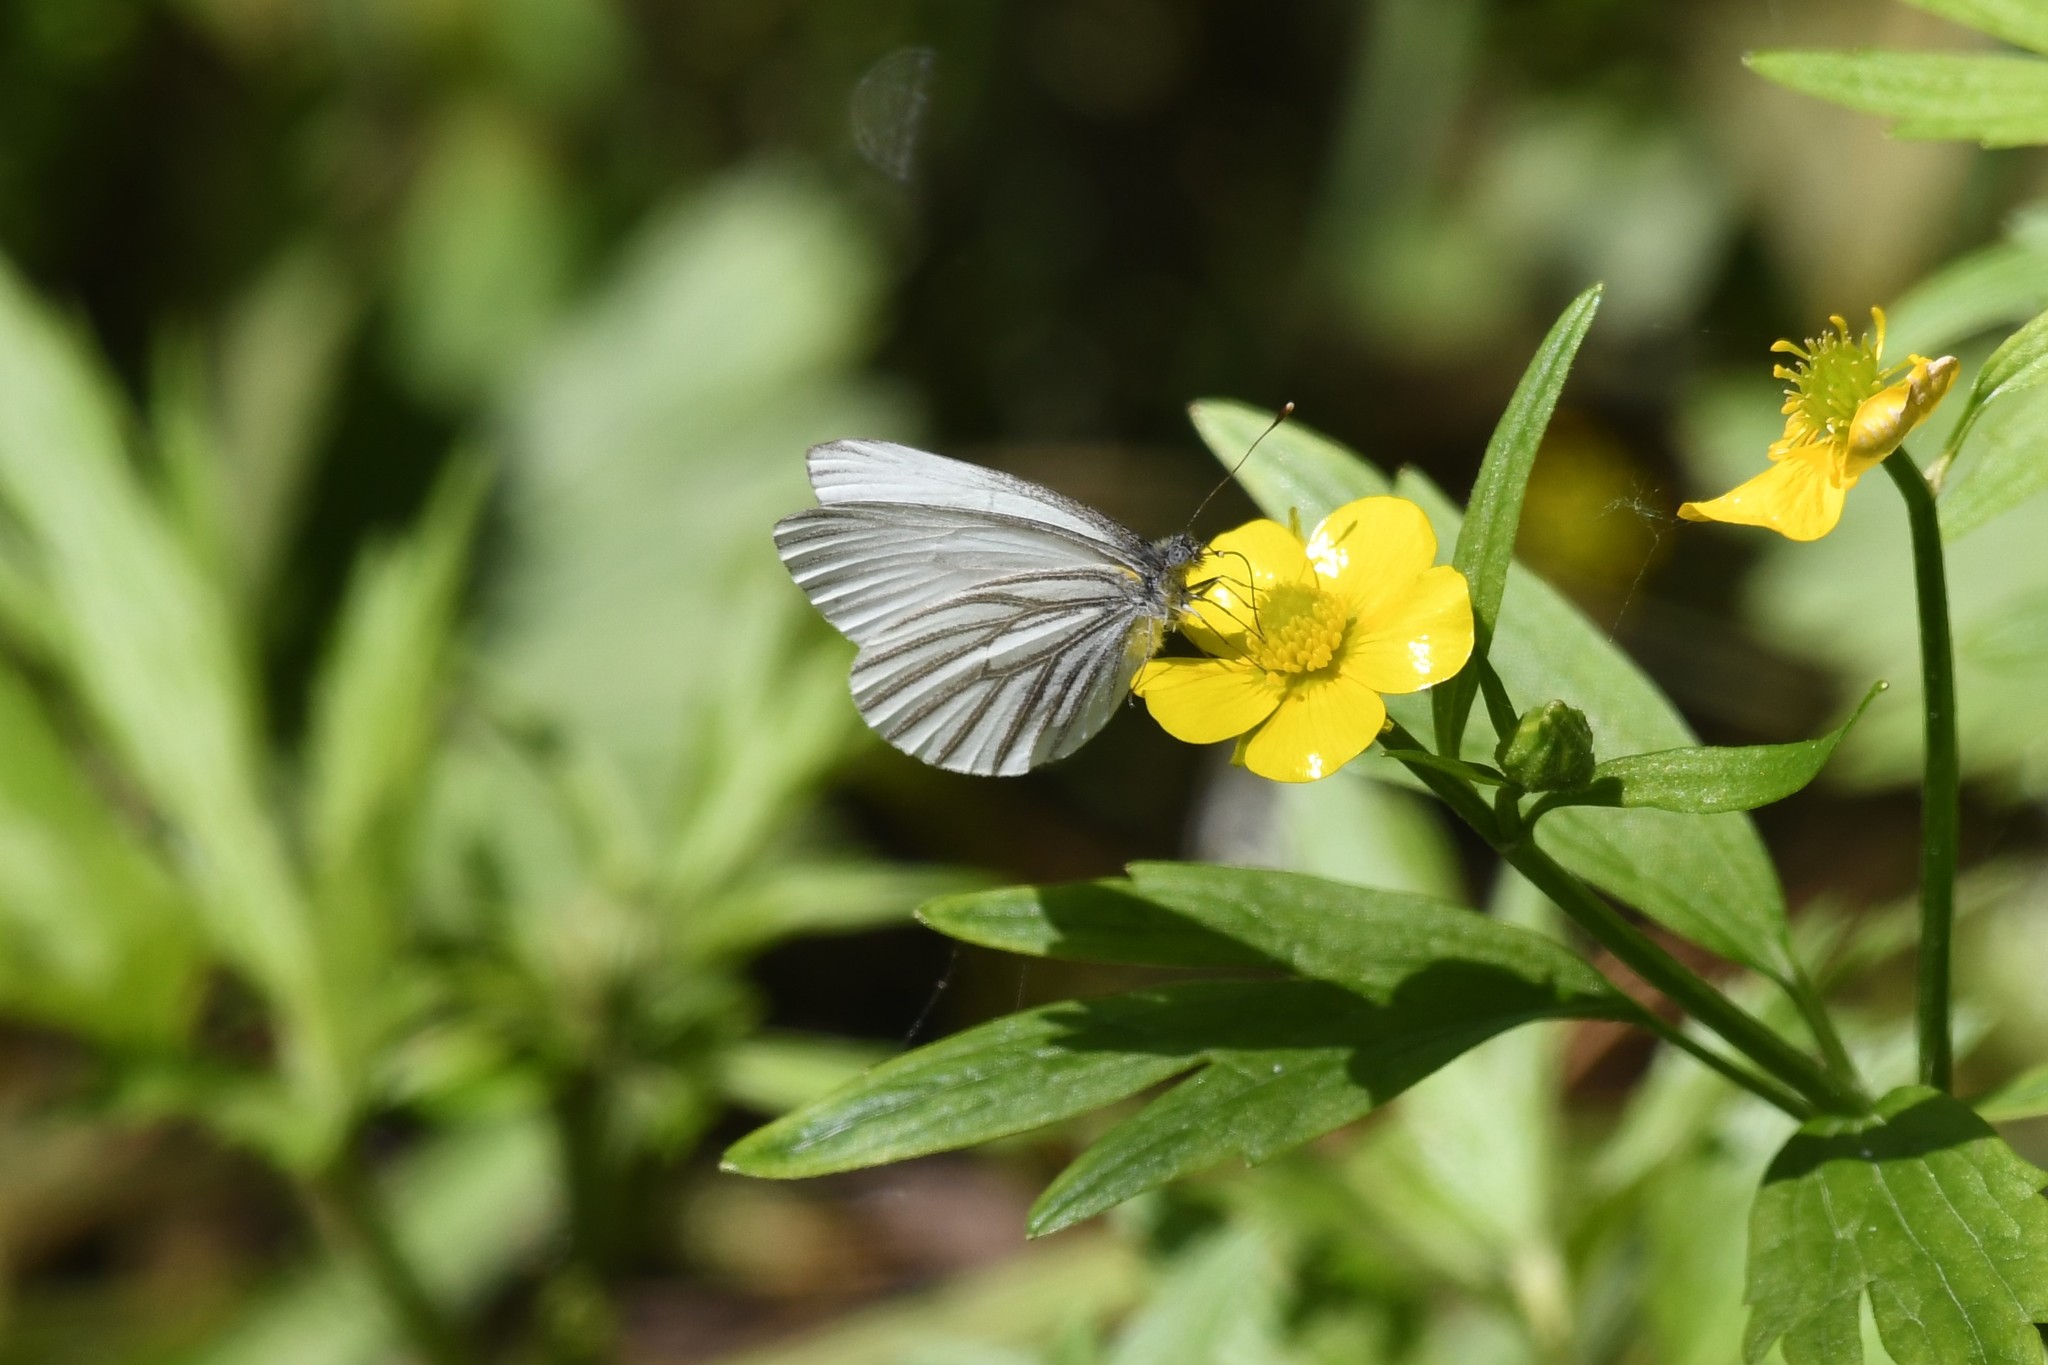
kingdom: Animalia
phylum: Arthropoda
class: Insecta
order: Lepidoptera
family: Pieridae
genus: Pieris
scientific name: Pieris oleracea
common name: Mustard white
